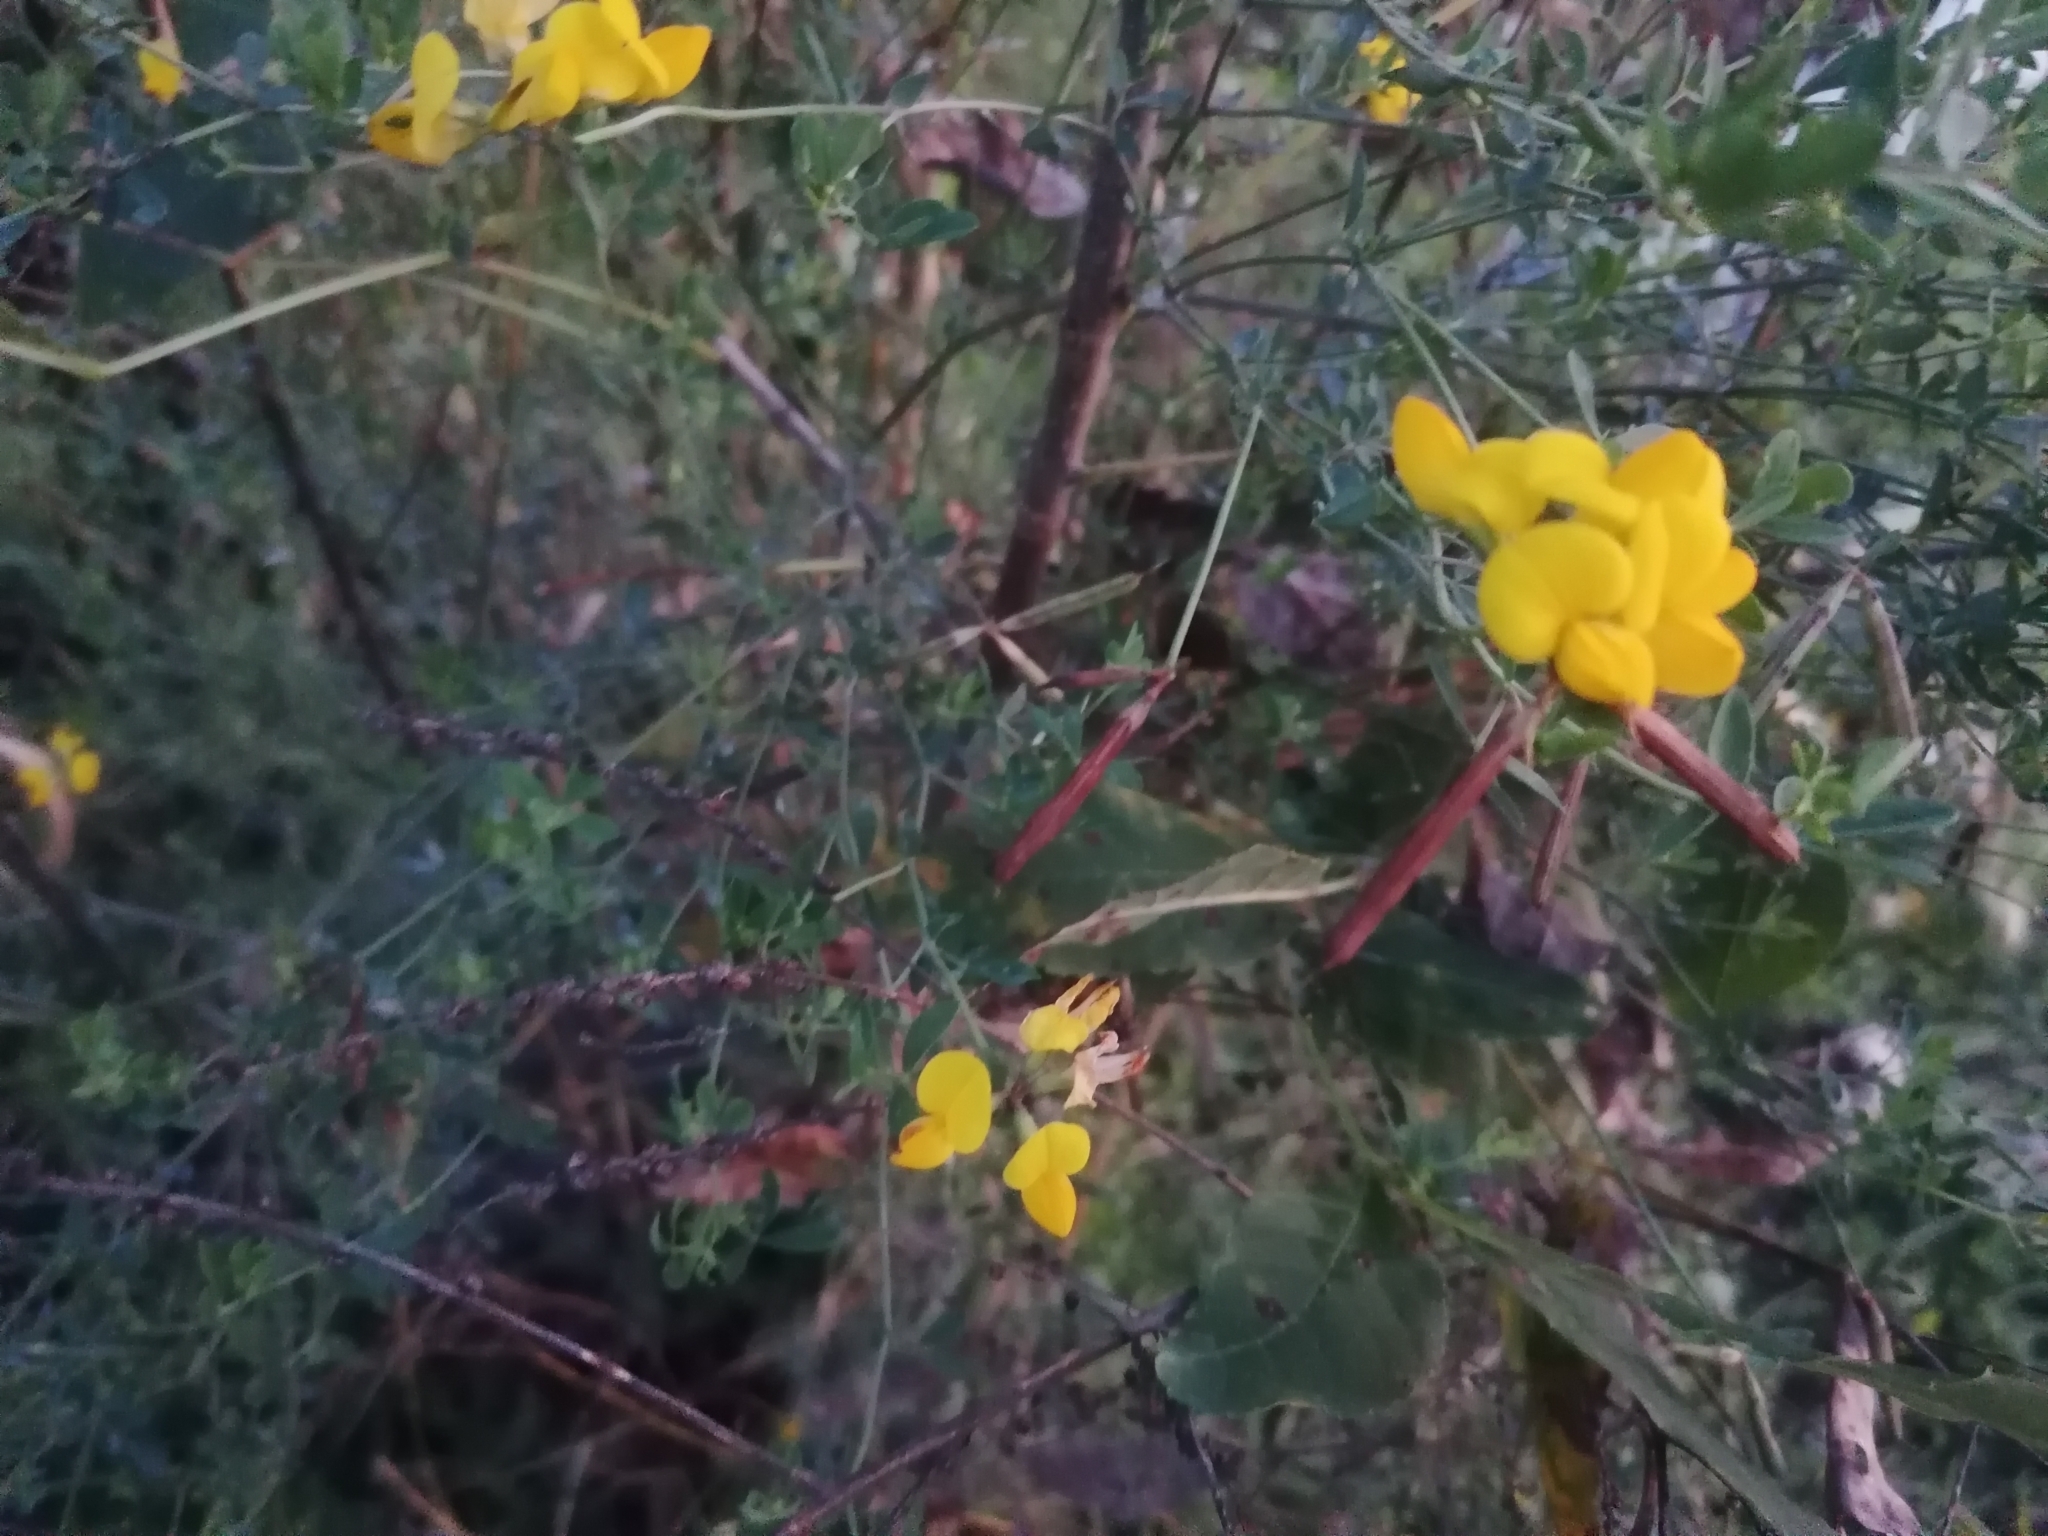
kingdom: Plantae
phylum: Tracheophyta
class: Magnoliopsida
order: Fabales
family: Fabaceae
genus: Lotus
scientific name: Lotus corniculatus
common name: Common bird's-foot-trefoil
